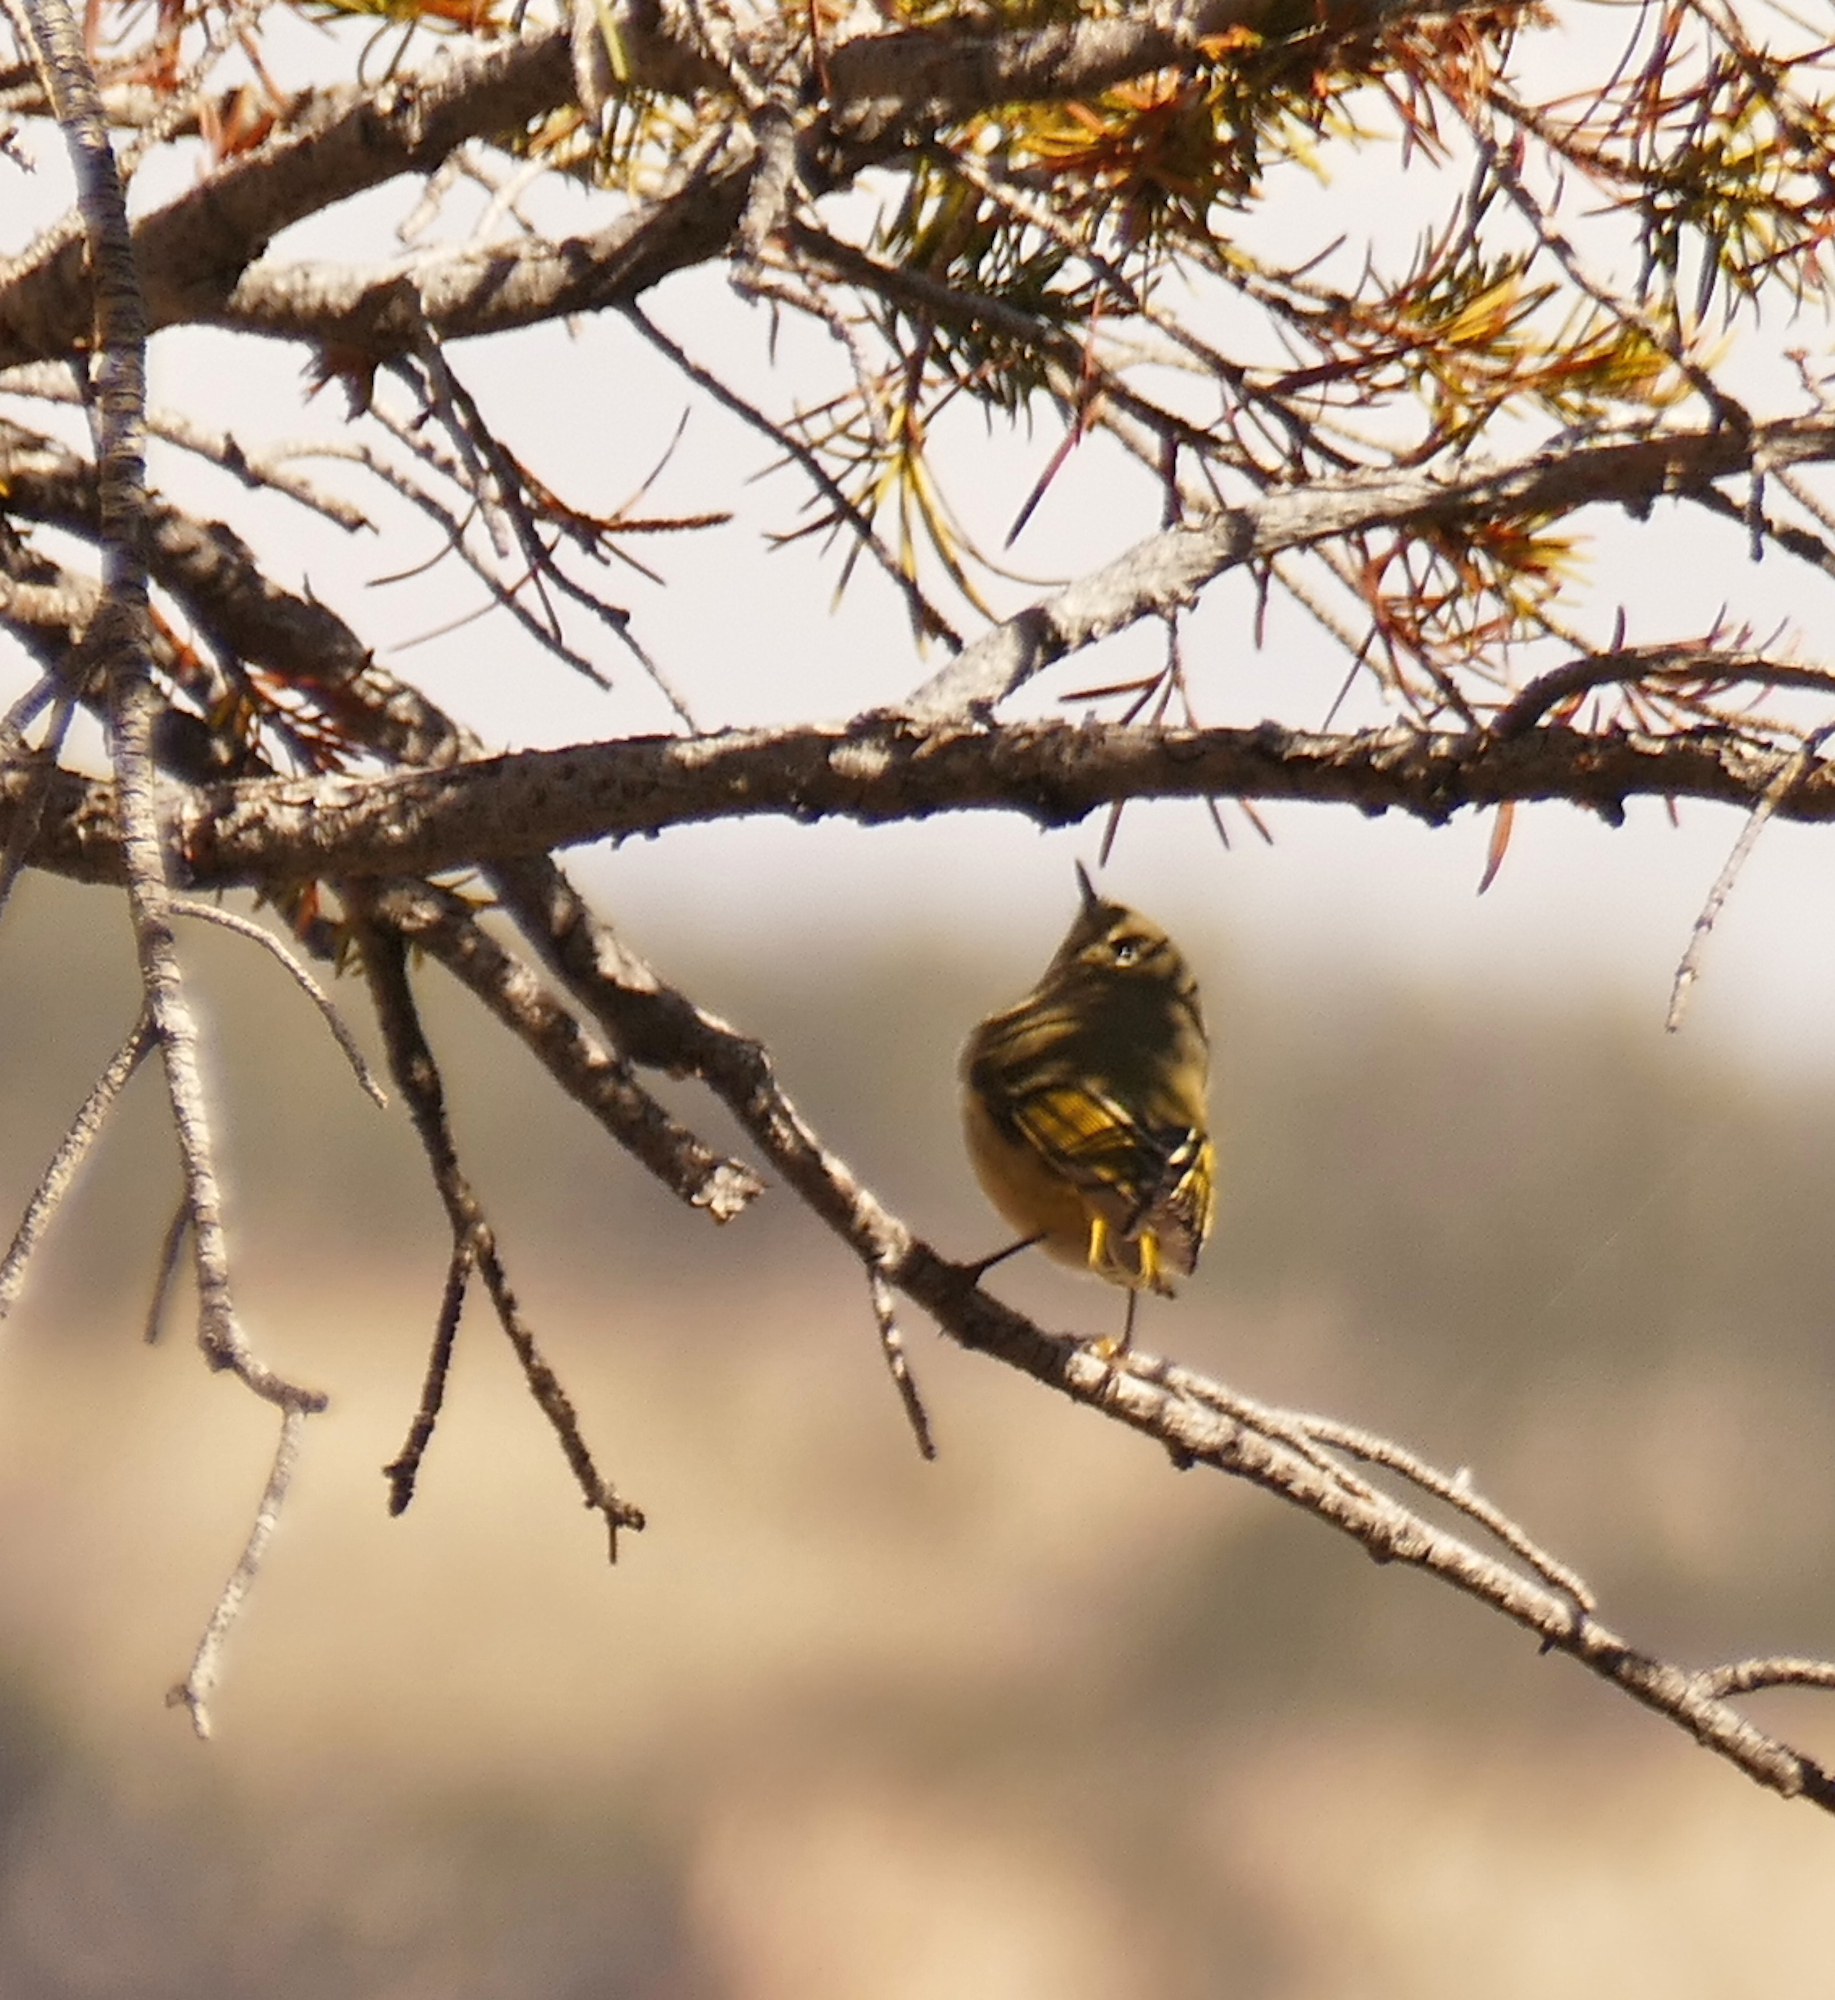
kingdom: Animalia
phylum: Chordata
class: Aves
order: Passeriformes
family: Regulidae
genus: Regulus
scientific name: Regulus calendula
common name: Ruby-crowned kinglet
